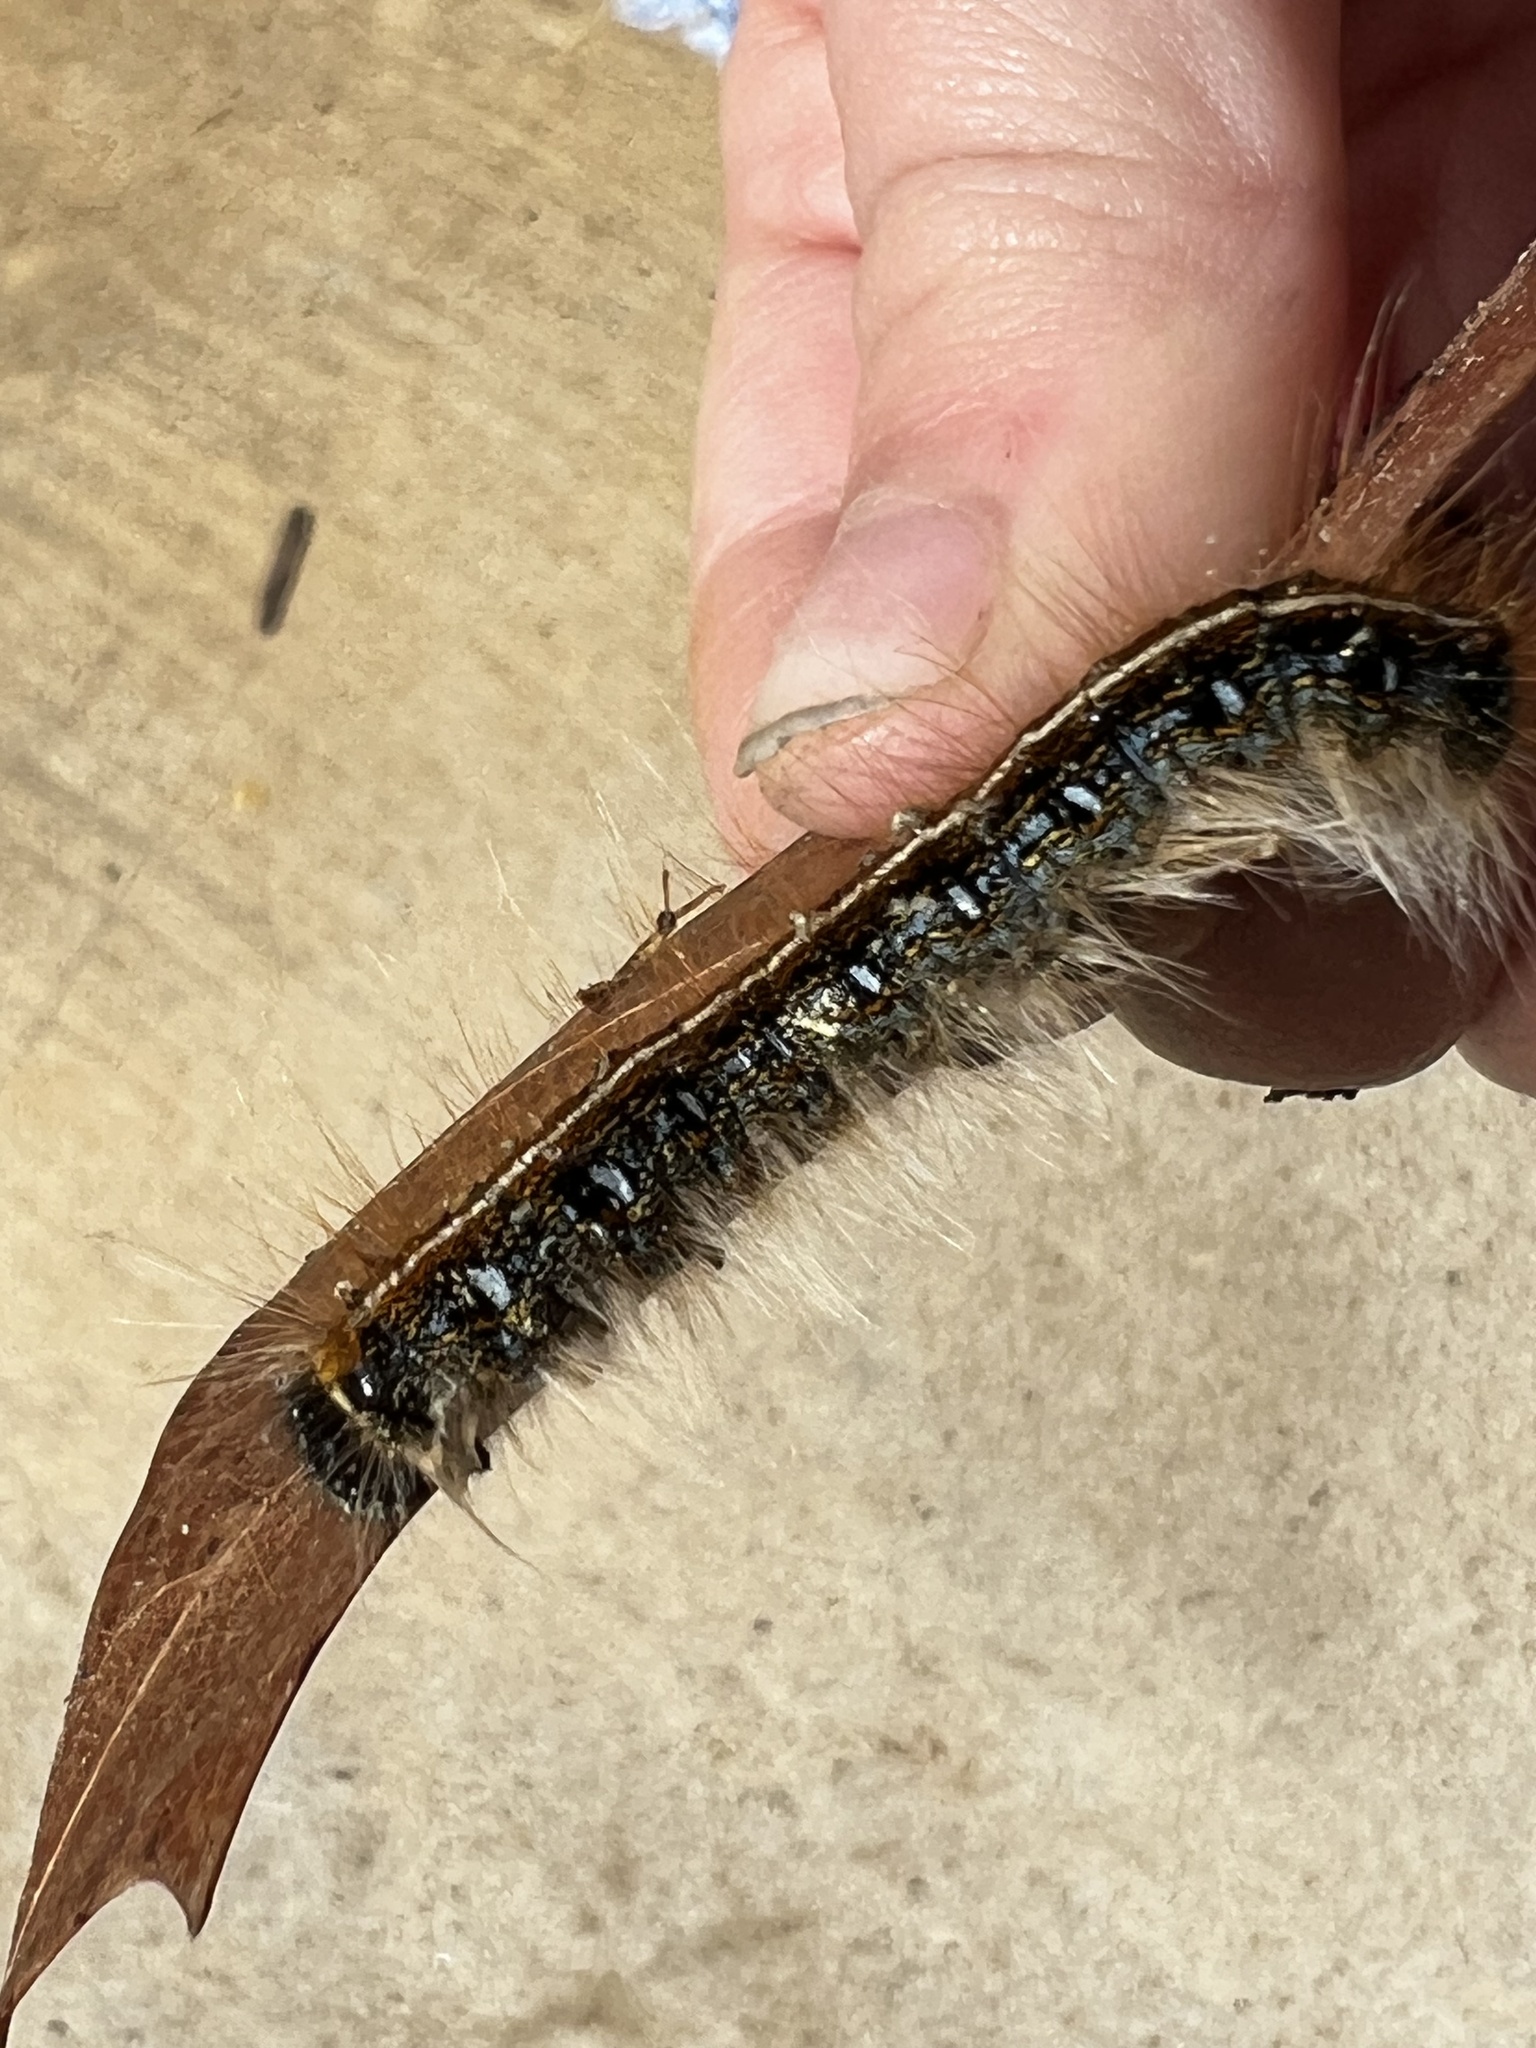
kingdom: Animalia
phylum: Arthropoda
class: Insecta
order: Lepidoptera
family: Lasiocampidae
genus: Malacosoma
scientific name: Malacosoma americana
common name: Eastern tent caterpillar moth
